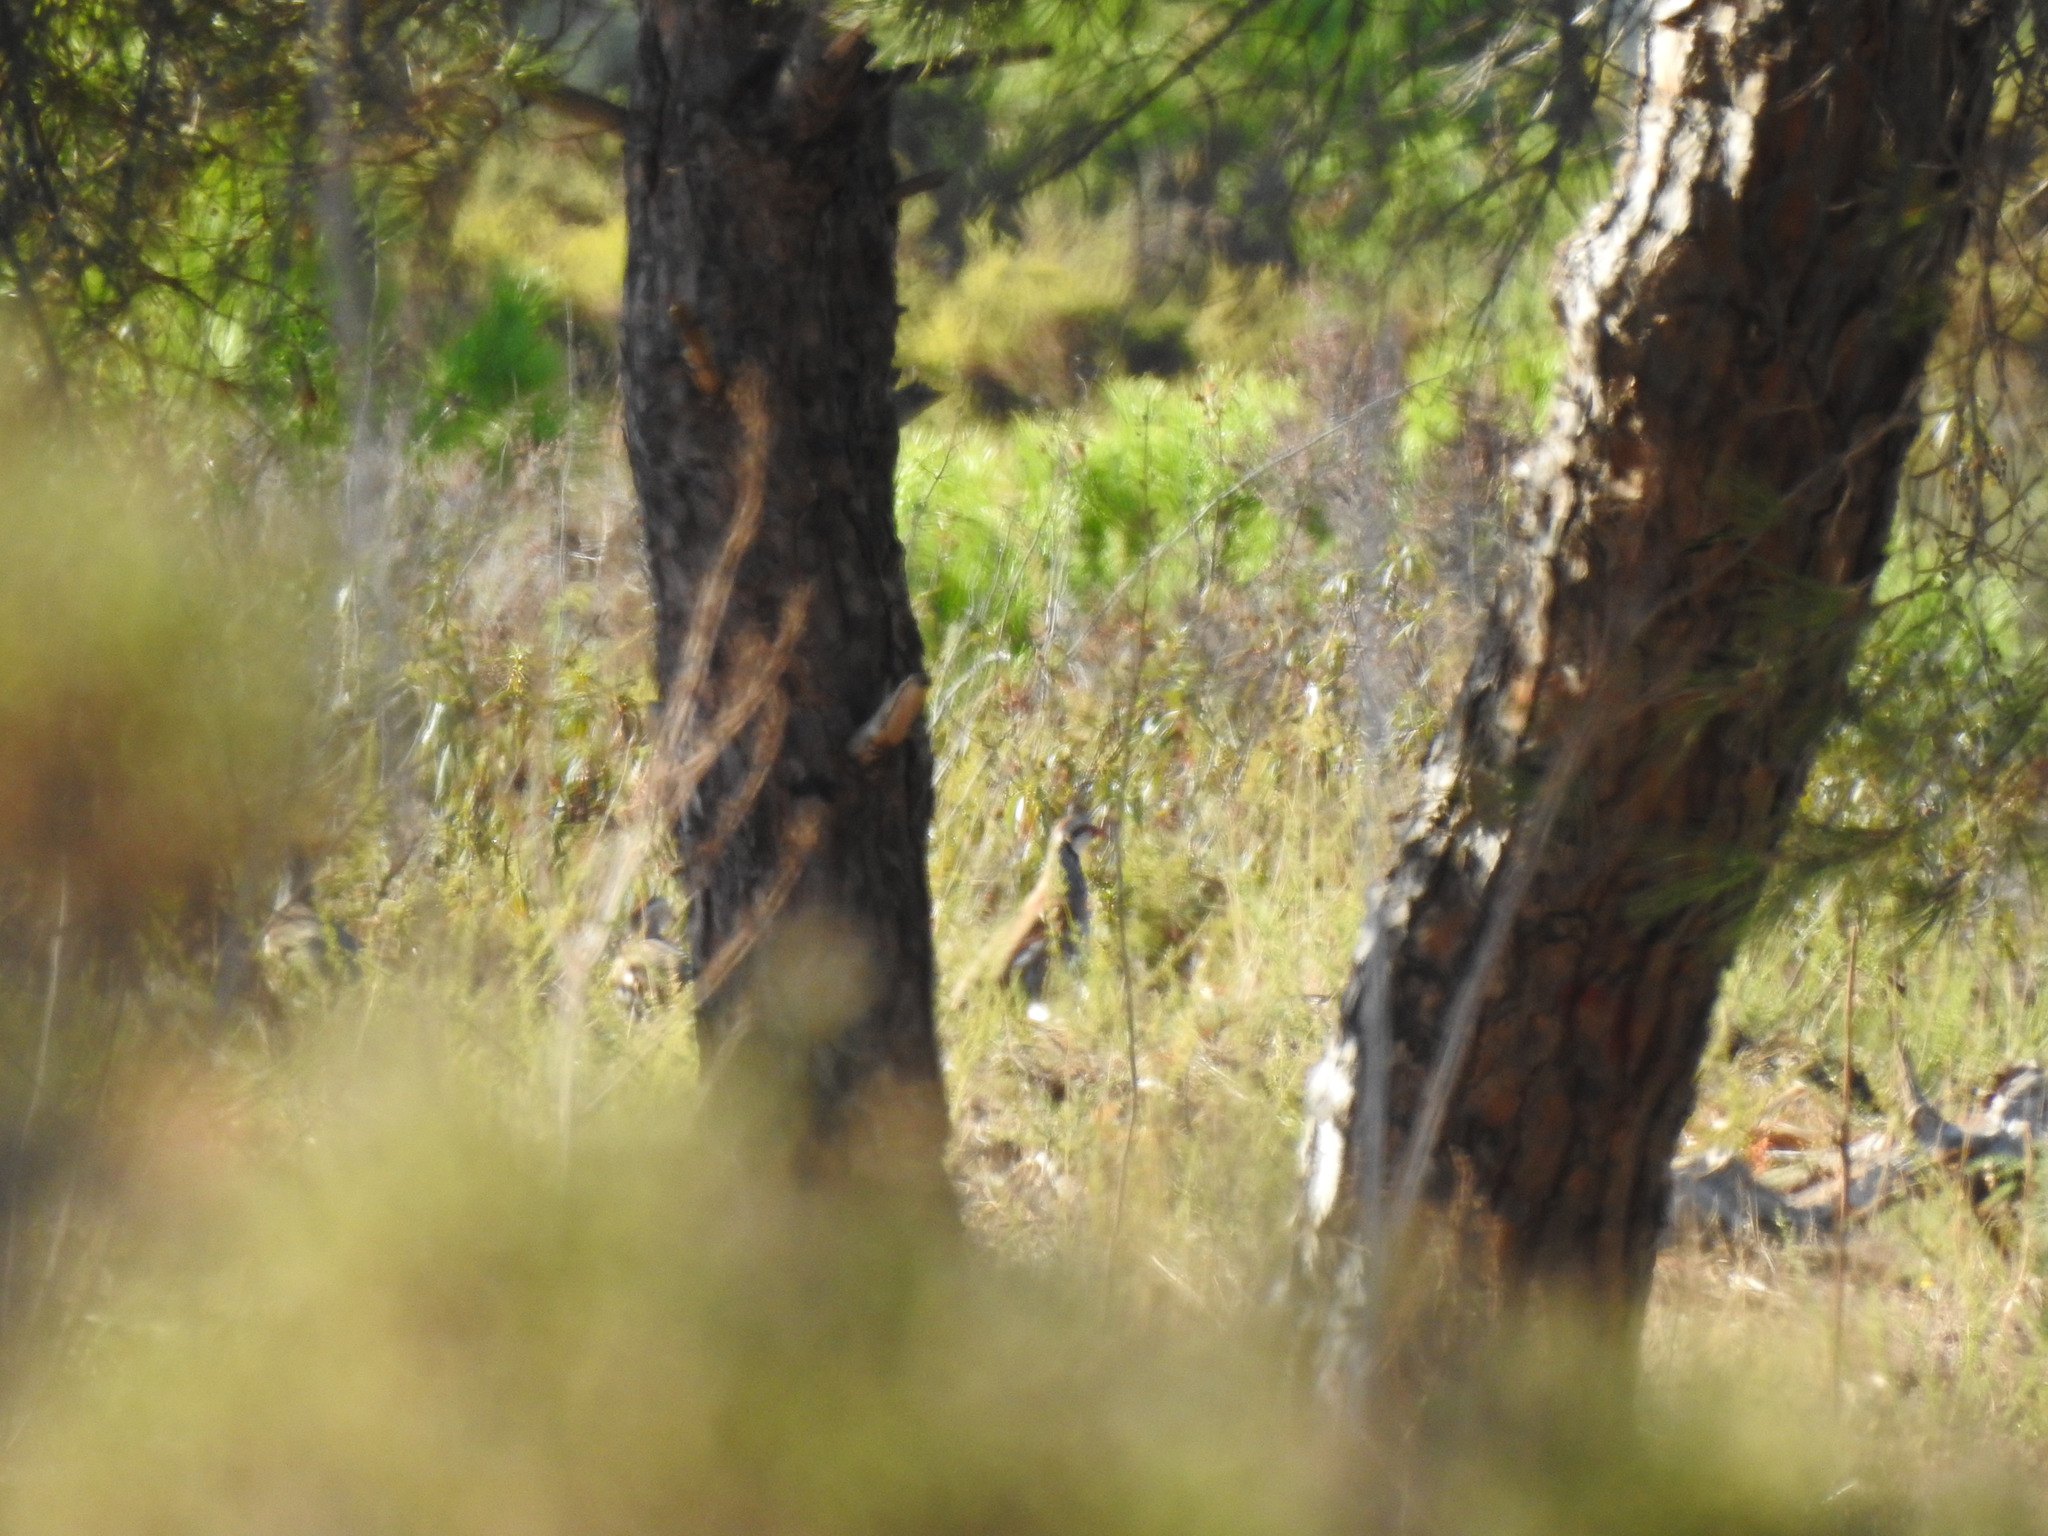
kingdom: Animalia
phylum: Chordata
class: Aves
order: Galliformes
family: Phasianidae
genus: Alectoris
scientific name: Alectoris rufa
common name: Red-legged partridge
